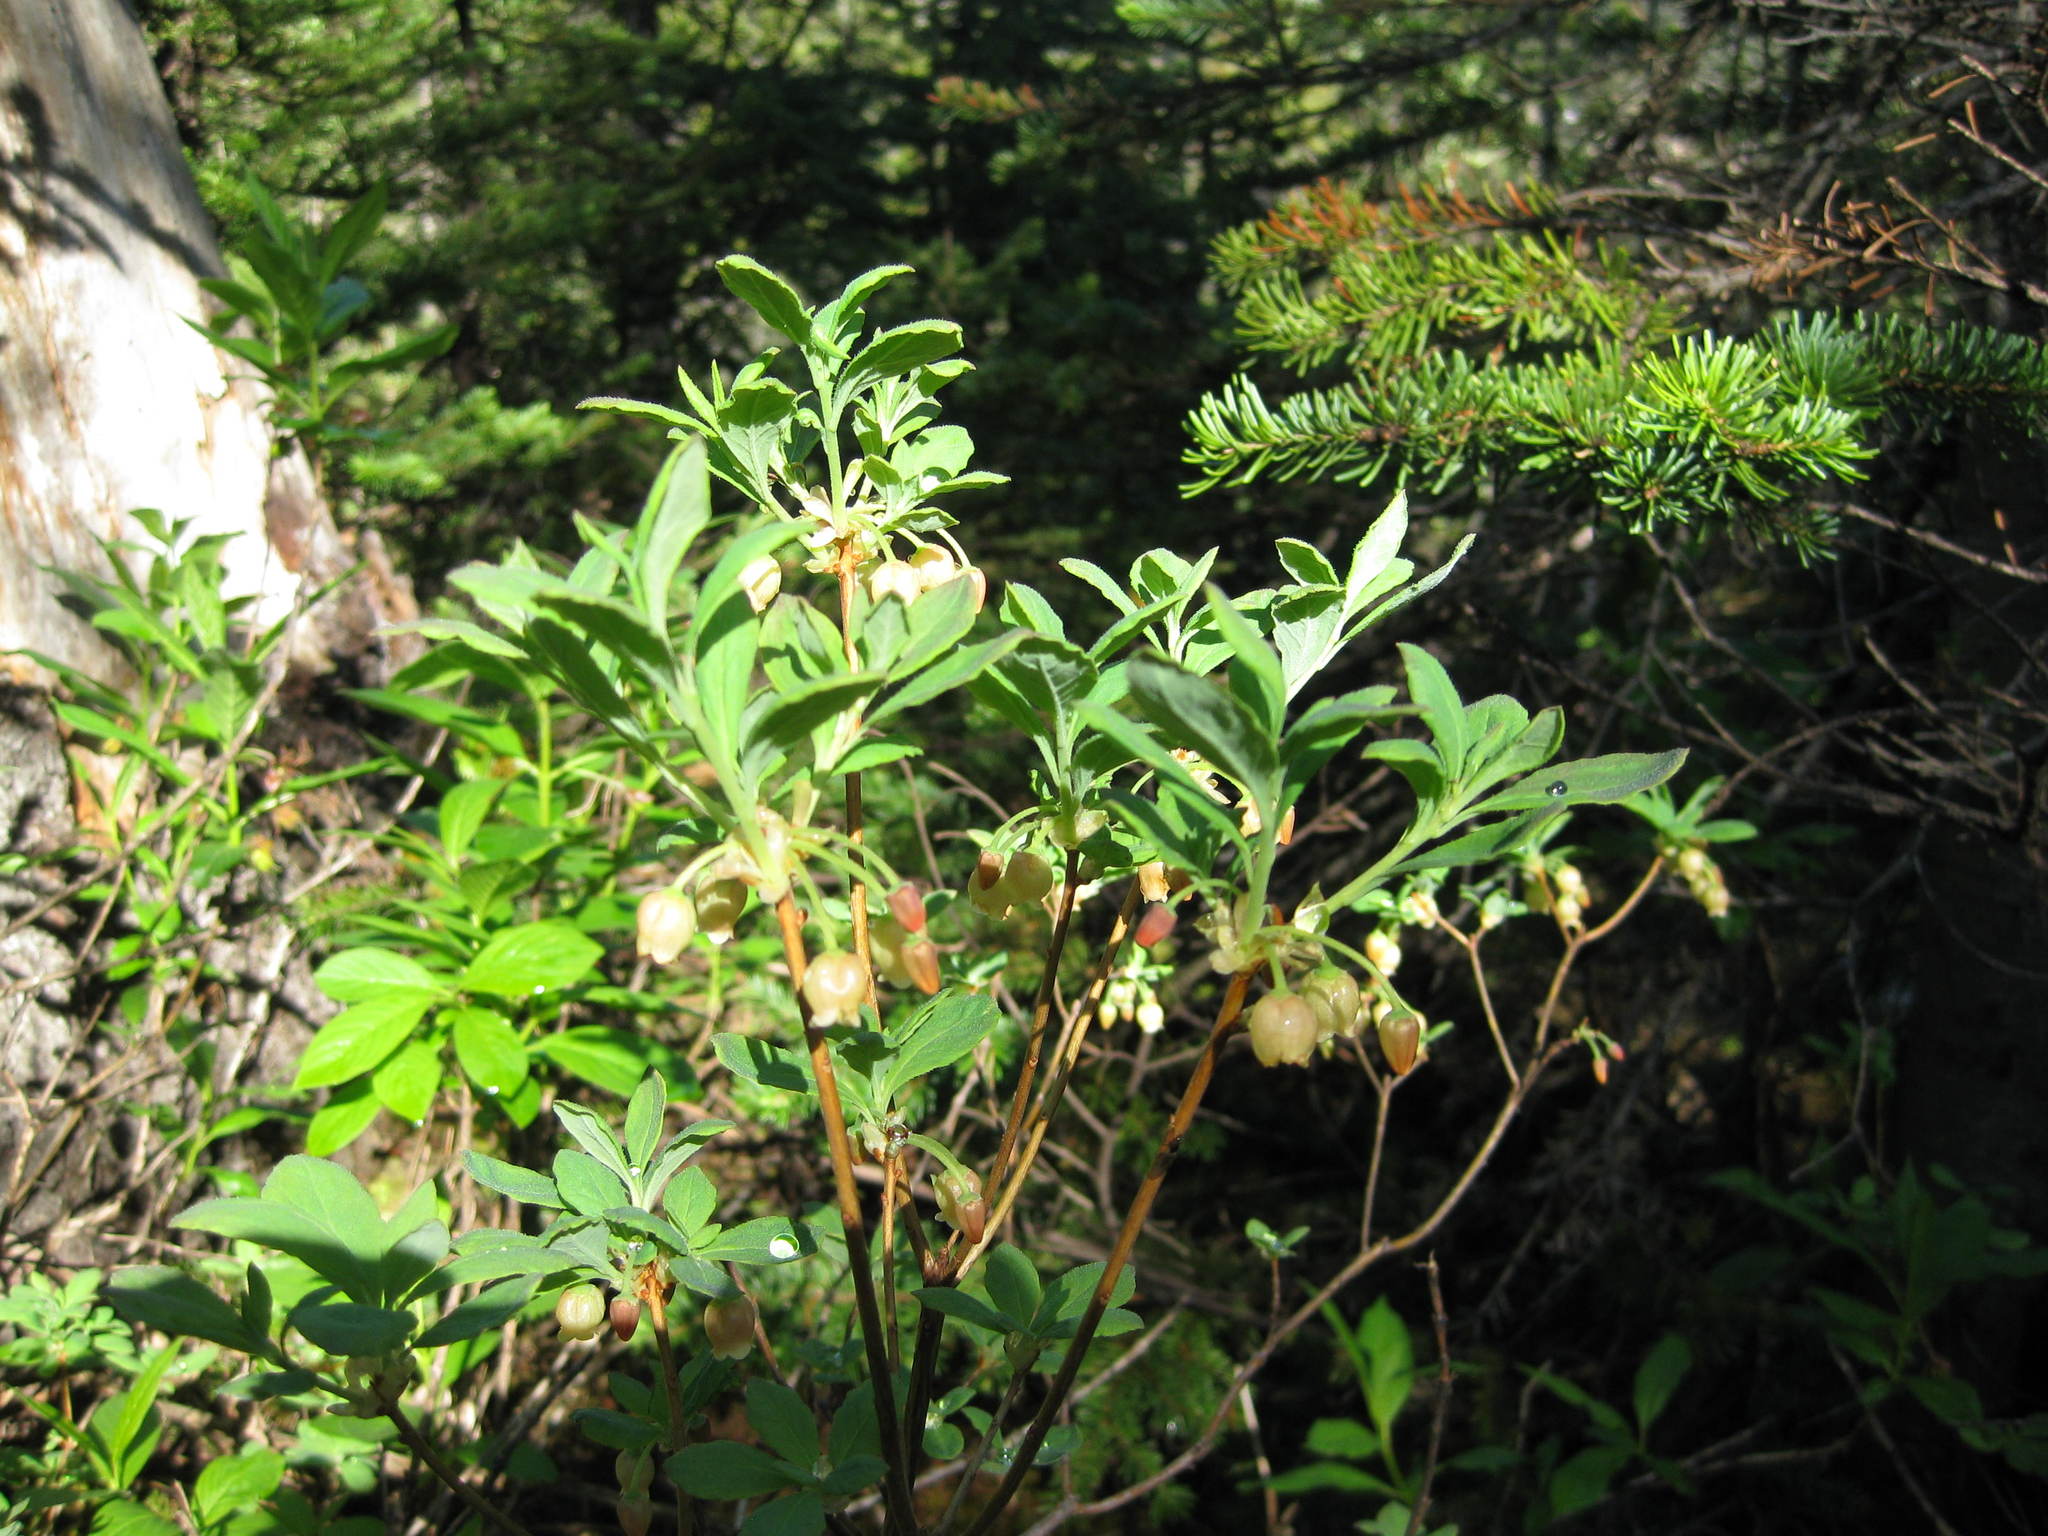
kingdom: Plantae
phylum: Tracheophyta
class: Magnoliopsida
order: Ericales
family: Ericaceae
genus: Rhododendron
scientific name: Rhododendron menziesii
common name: Pacific menziesia
